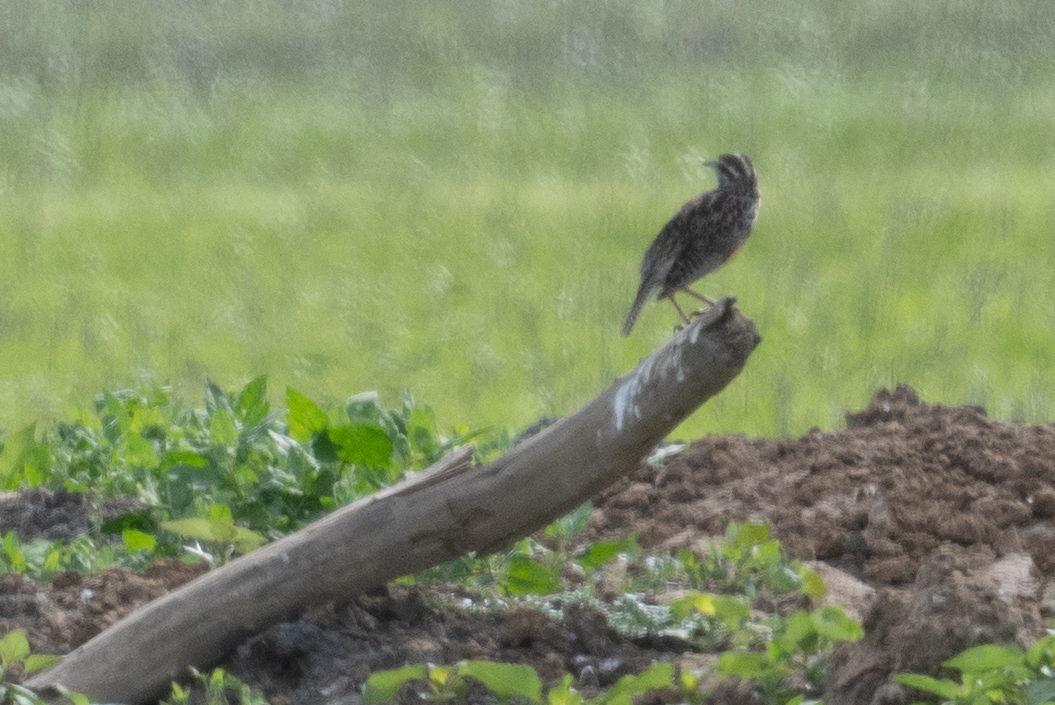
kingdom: Animalia
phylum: Chordata
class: Aves
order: Passeriformes
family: Icteridae
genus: Sturnella
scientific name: Sturnella neglecta
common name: Western meadowlark
